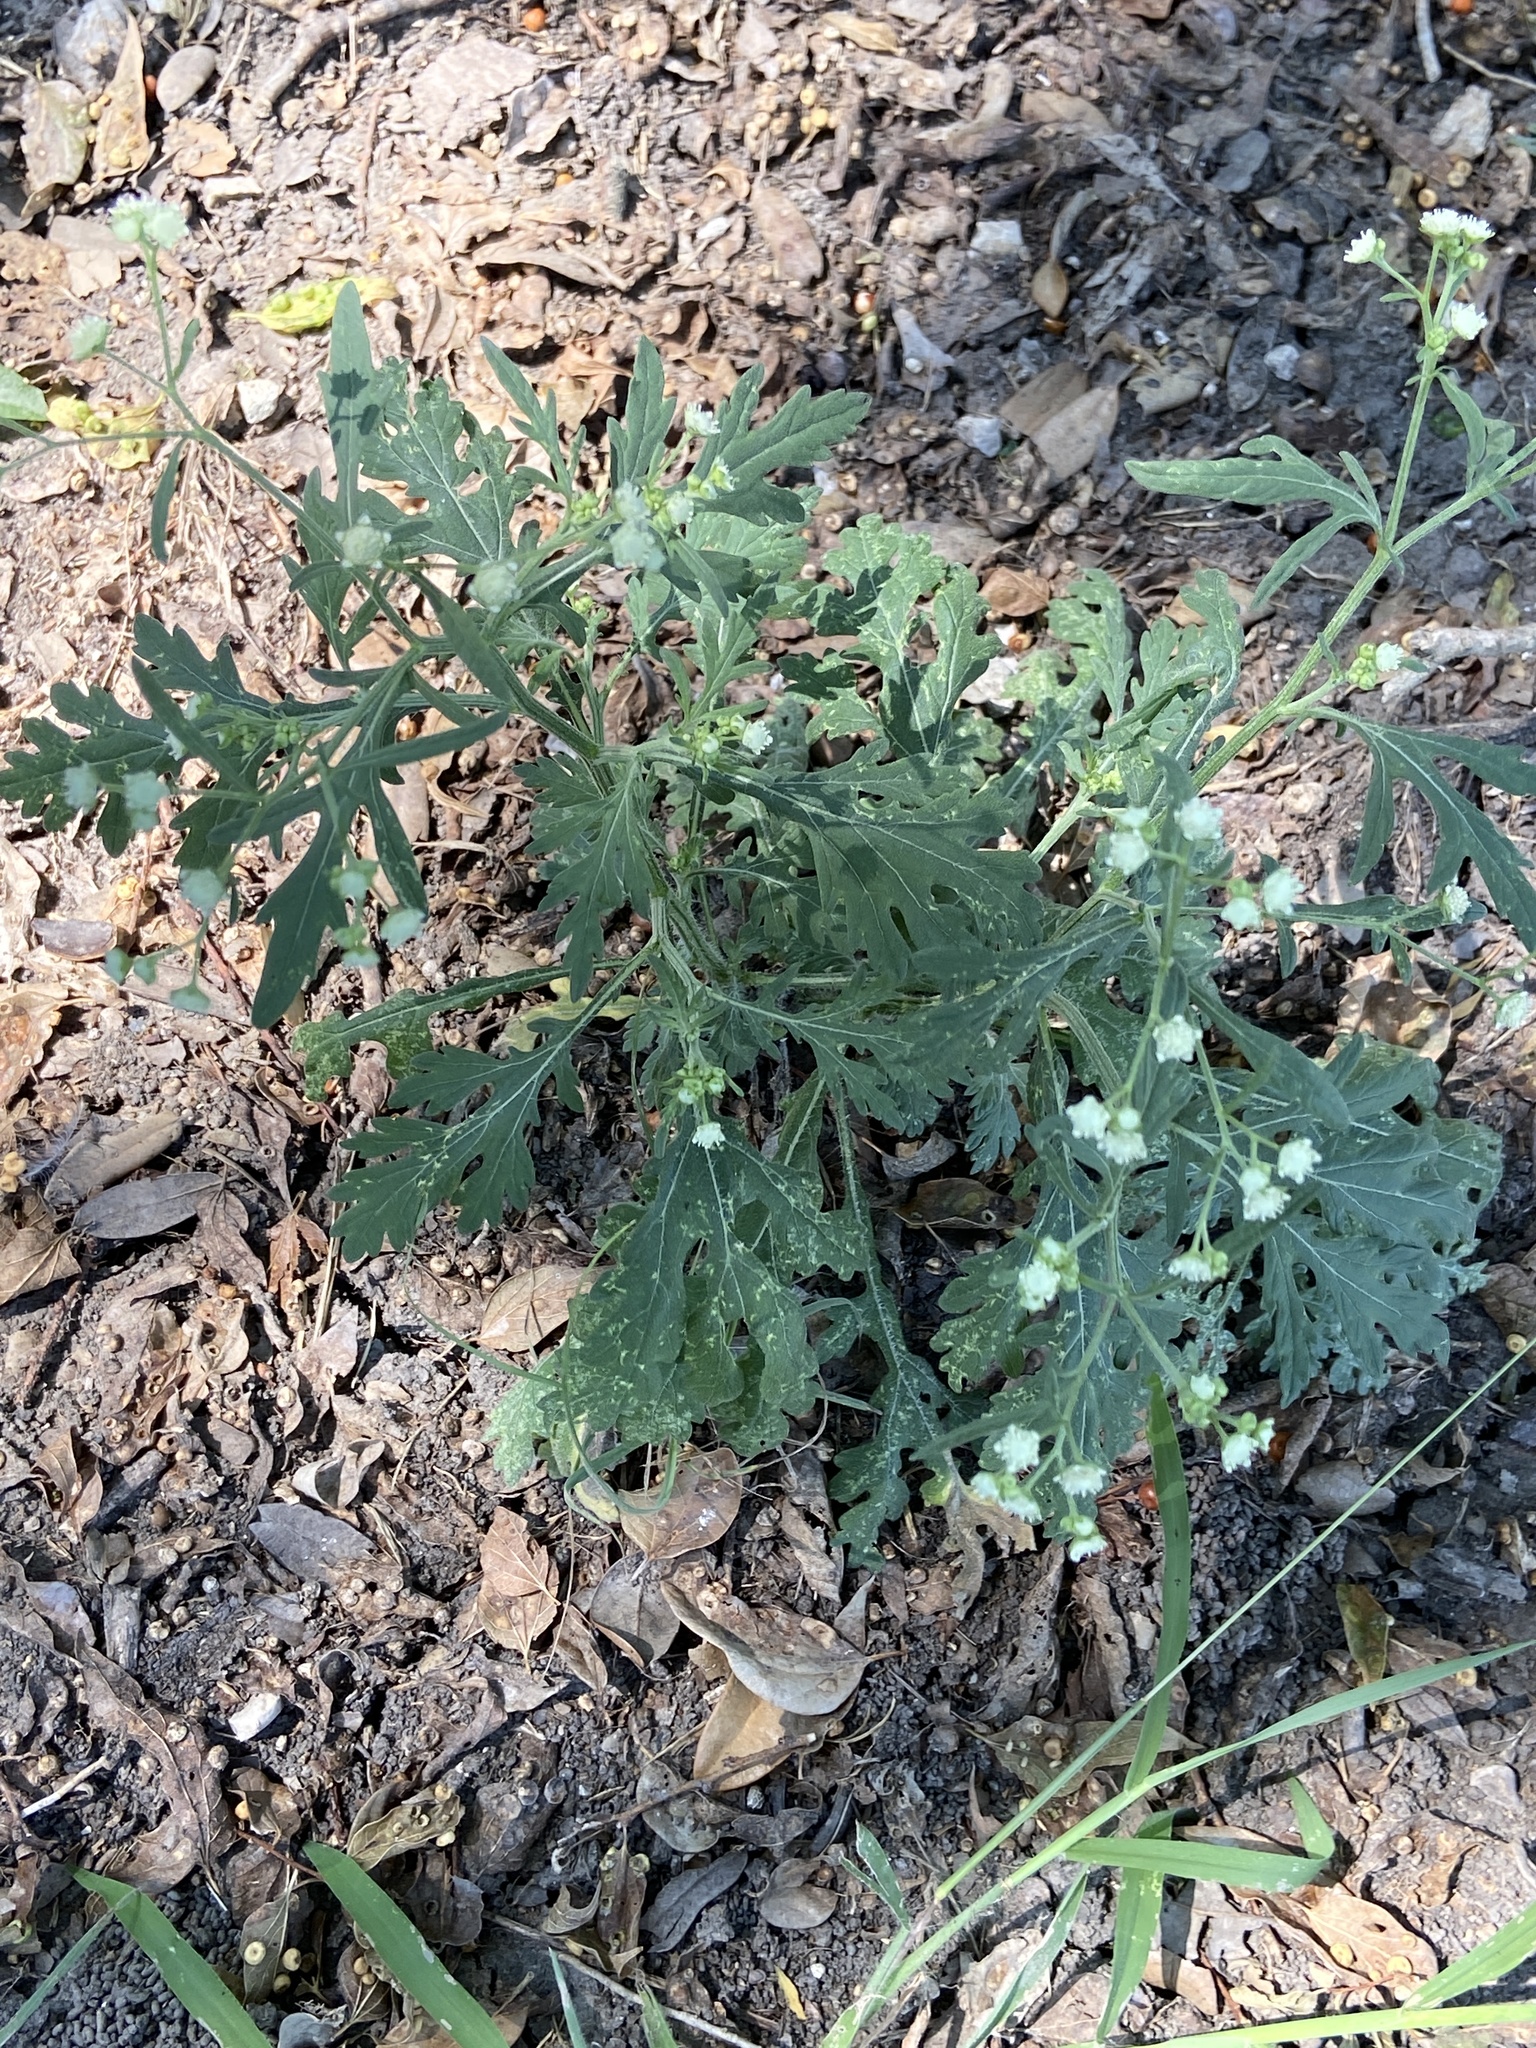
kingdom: Plantae
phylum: Tracheophyta
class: Magnoliopsida
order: Asterales
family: Asteraceae
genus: Parthenium
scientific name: Parthenium hysterophorus
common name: Santa maria feverfew
